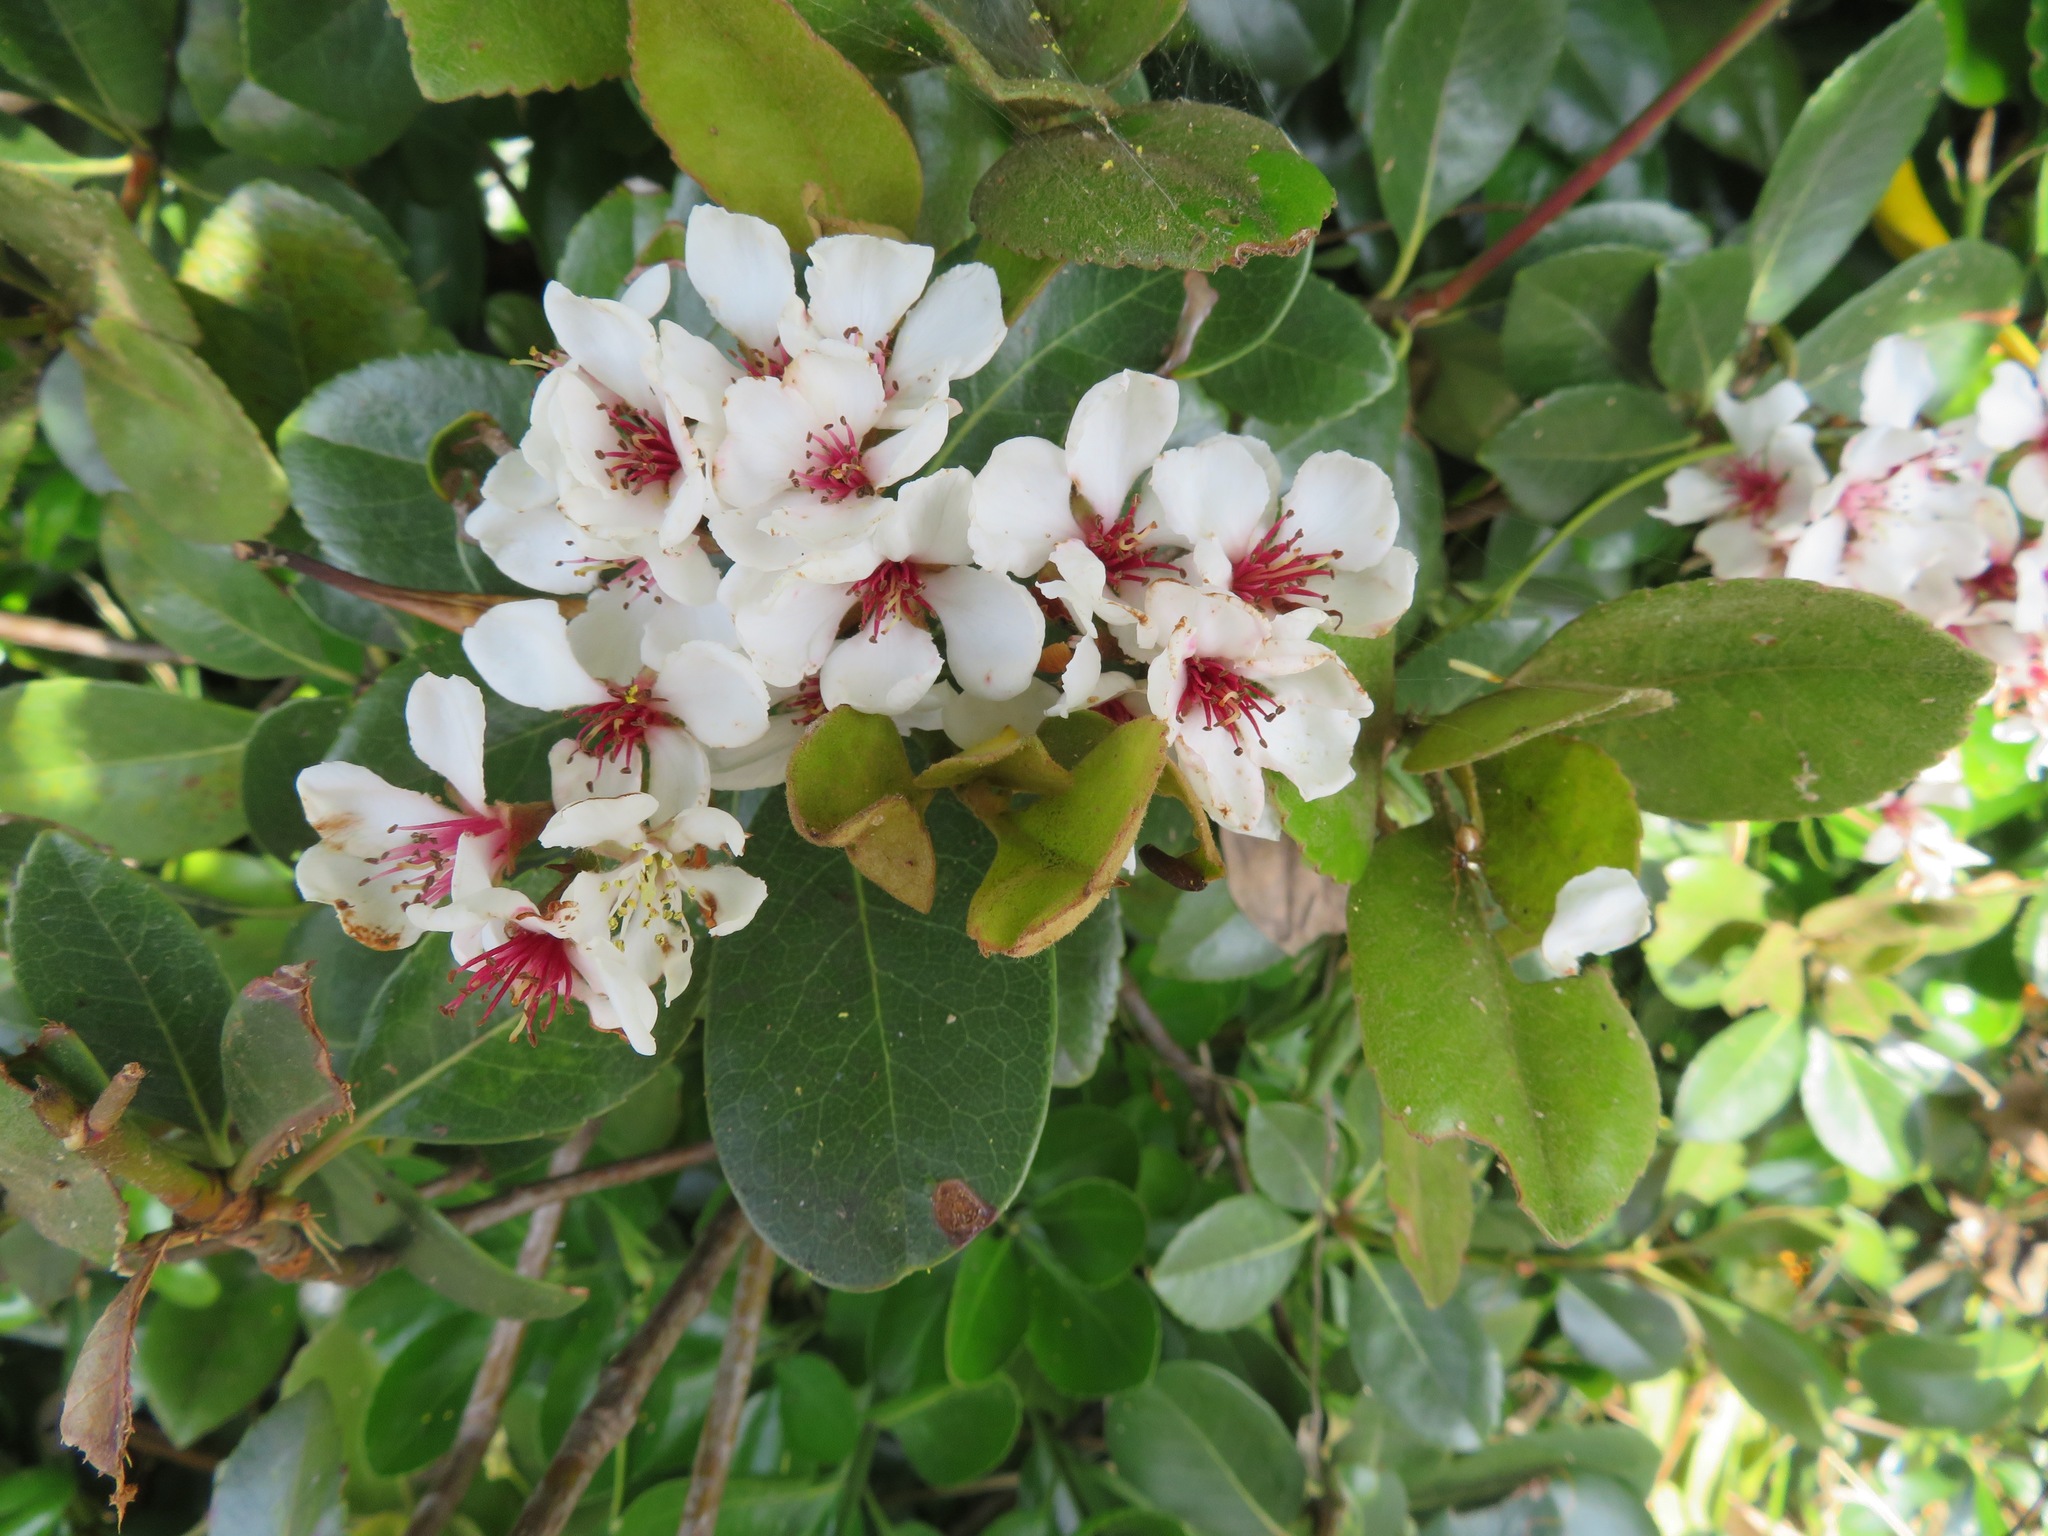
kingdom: Plantae
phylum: Tracheophyta
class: Magnoliopsida
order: Rosales
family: Rosaceae
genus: Rhaphiolepis
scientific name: Rhaphiolepis indica
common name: India-hawthorn
